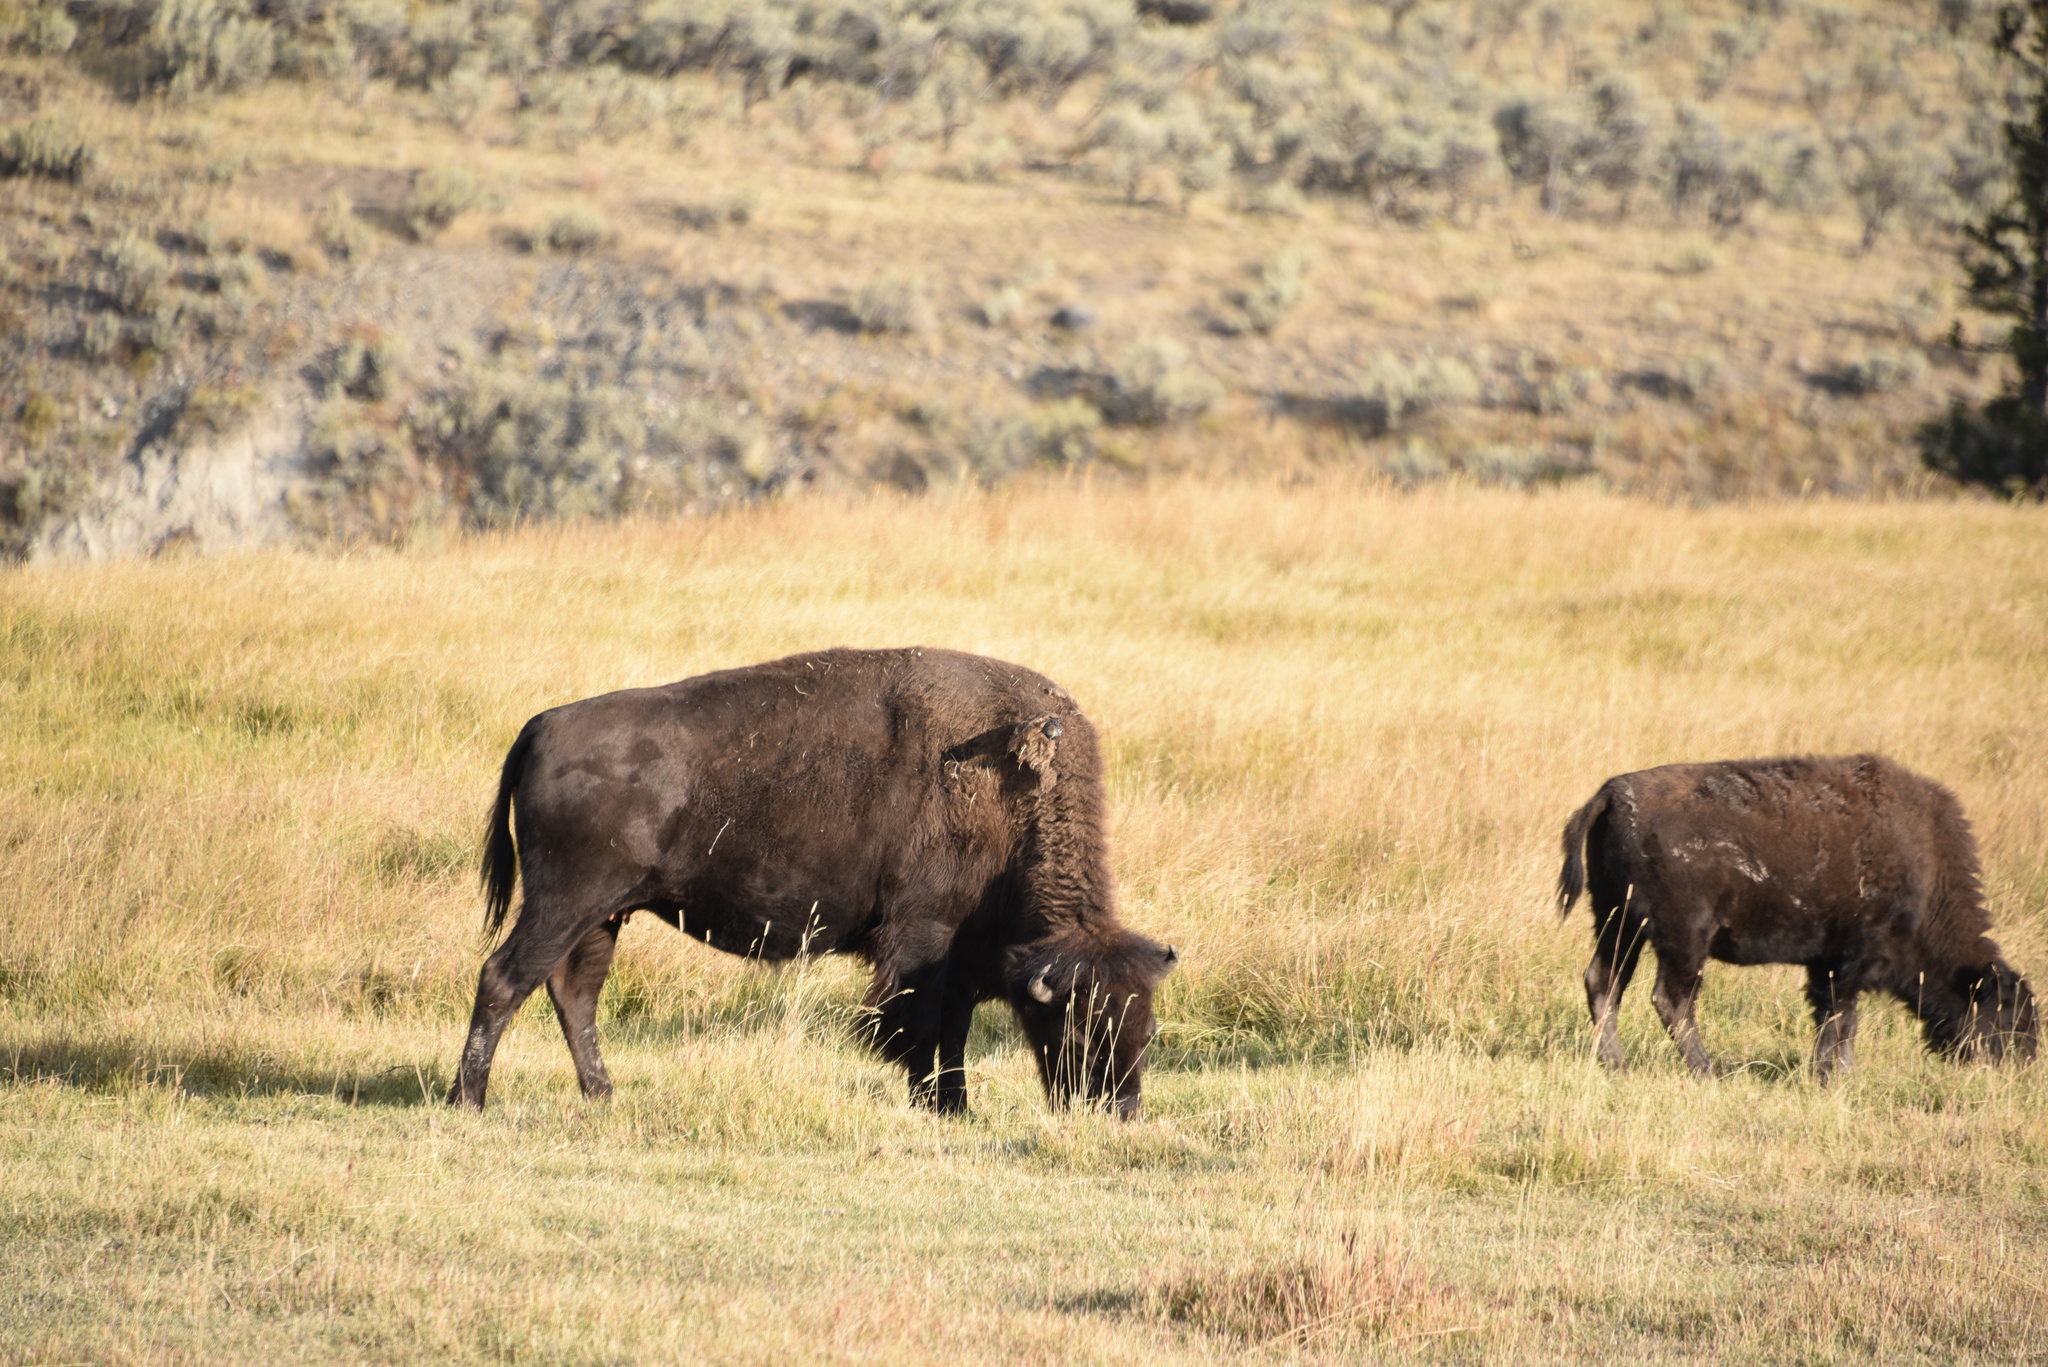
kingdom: Animalia
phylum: Chordata
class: Mammalia
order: Artiodactyla
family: Bovidae
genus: Bison
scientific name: Bison bison
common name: American bison
